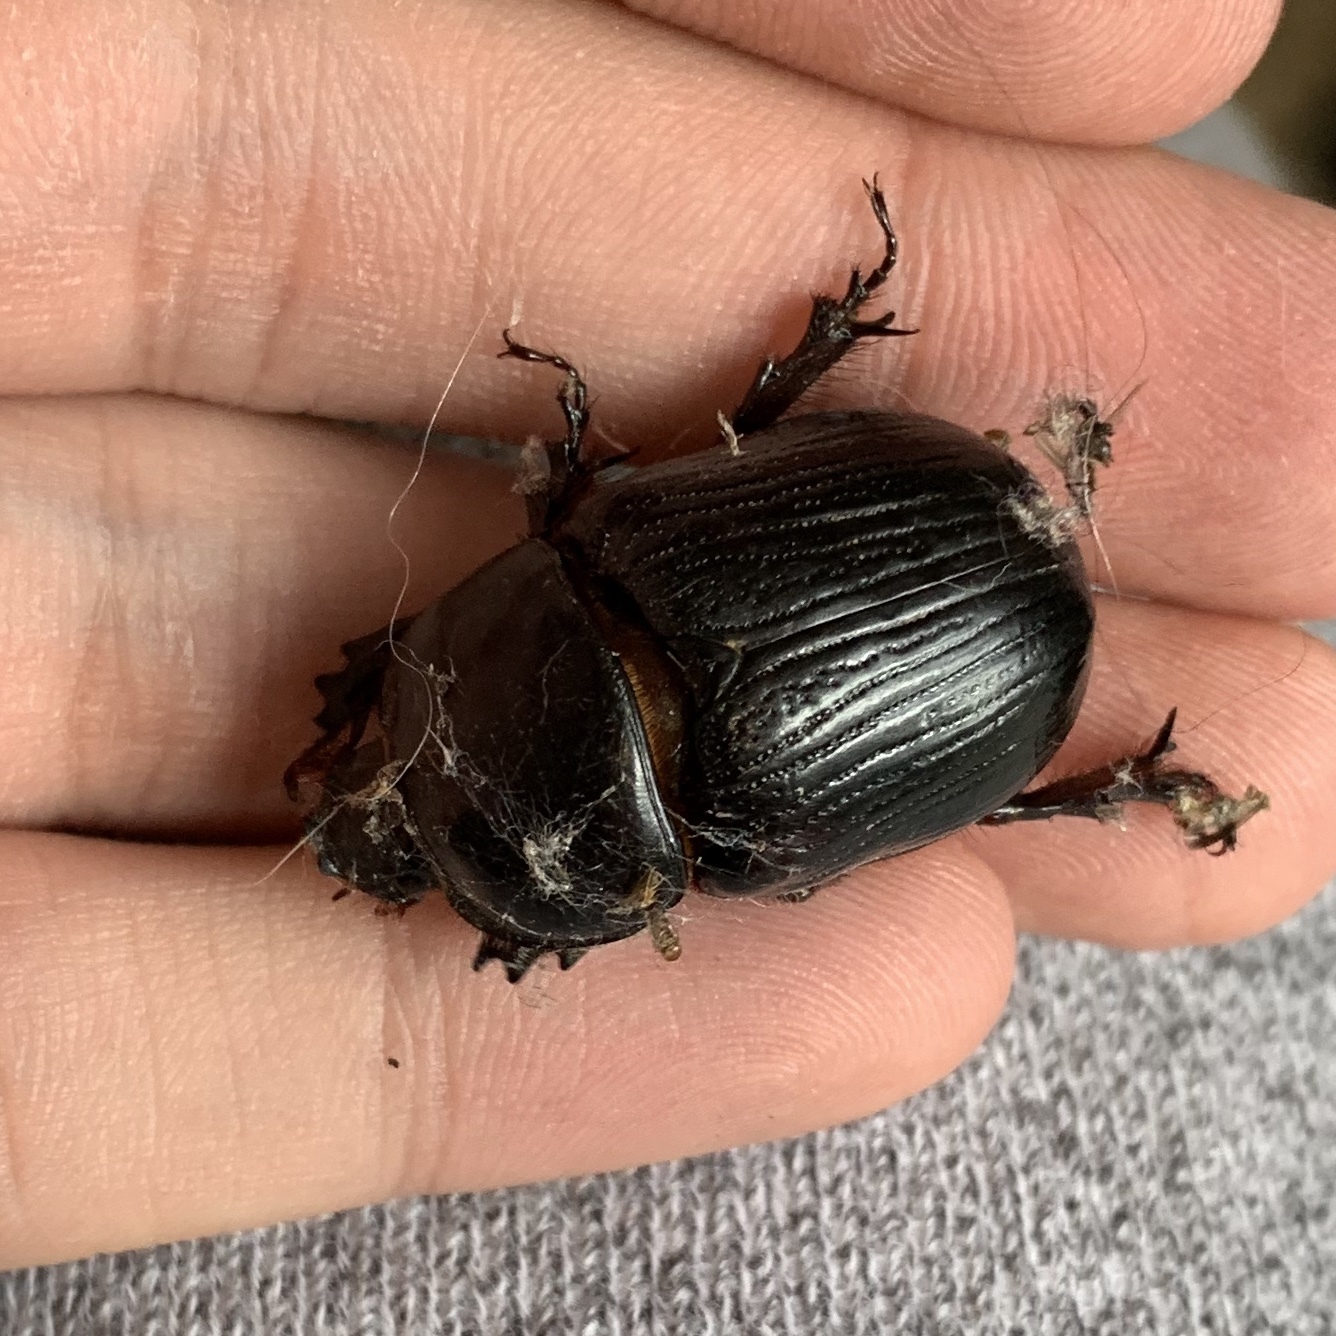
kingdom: Animalia
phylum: Arthropoda
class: Insecta
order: Coleoptera
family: Scarabaeidae
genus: Xyloryctes
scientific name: Xyloryctes jamaicensis
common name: Eastern rhinoceros beetle
